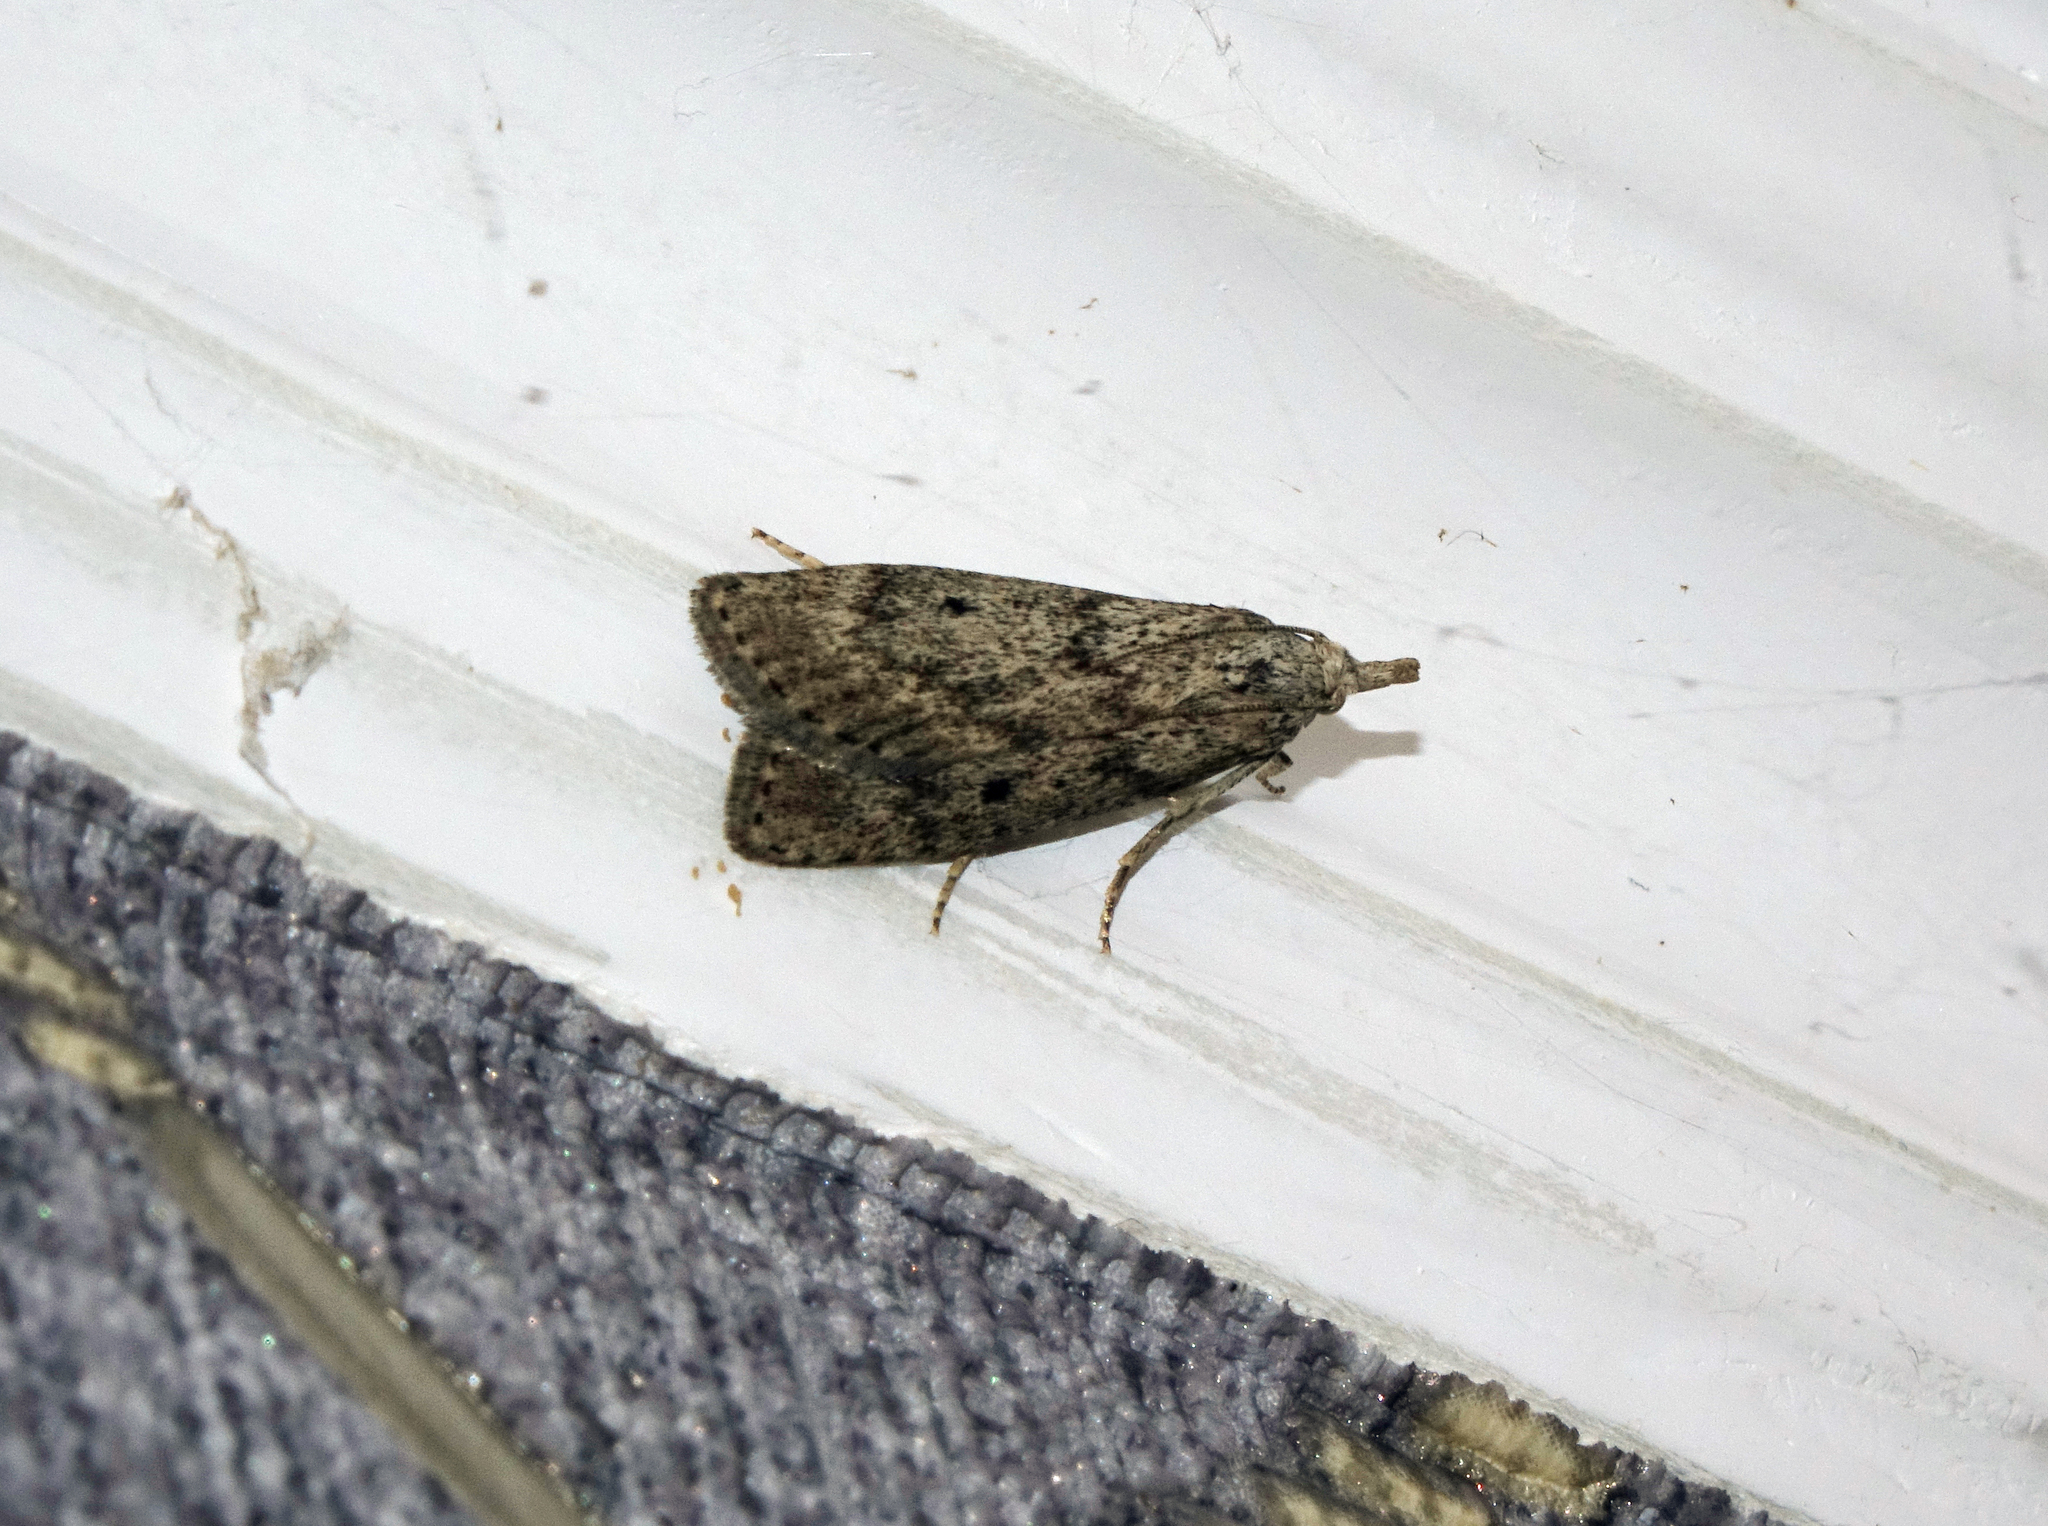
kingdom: Animalia
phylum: Arthropoda
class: Insecta
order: Lepidoptera
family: Pyralidae
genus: Aphomia
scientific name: Aphomia sociella
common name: Bee moth
